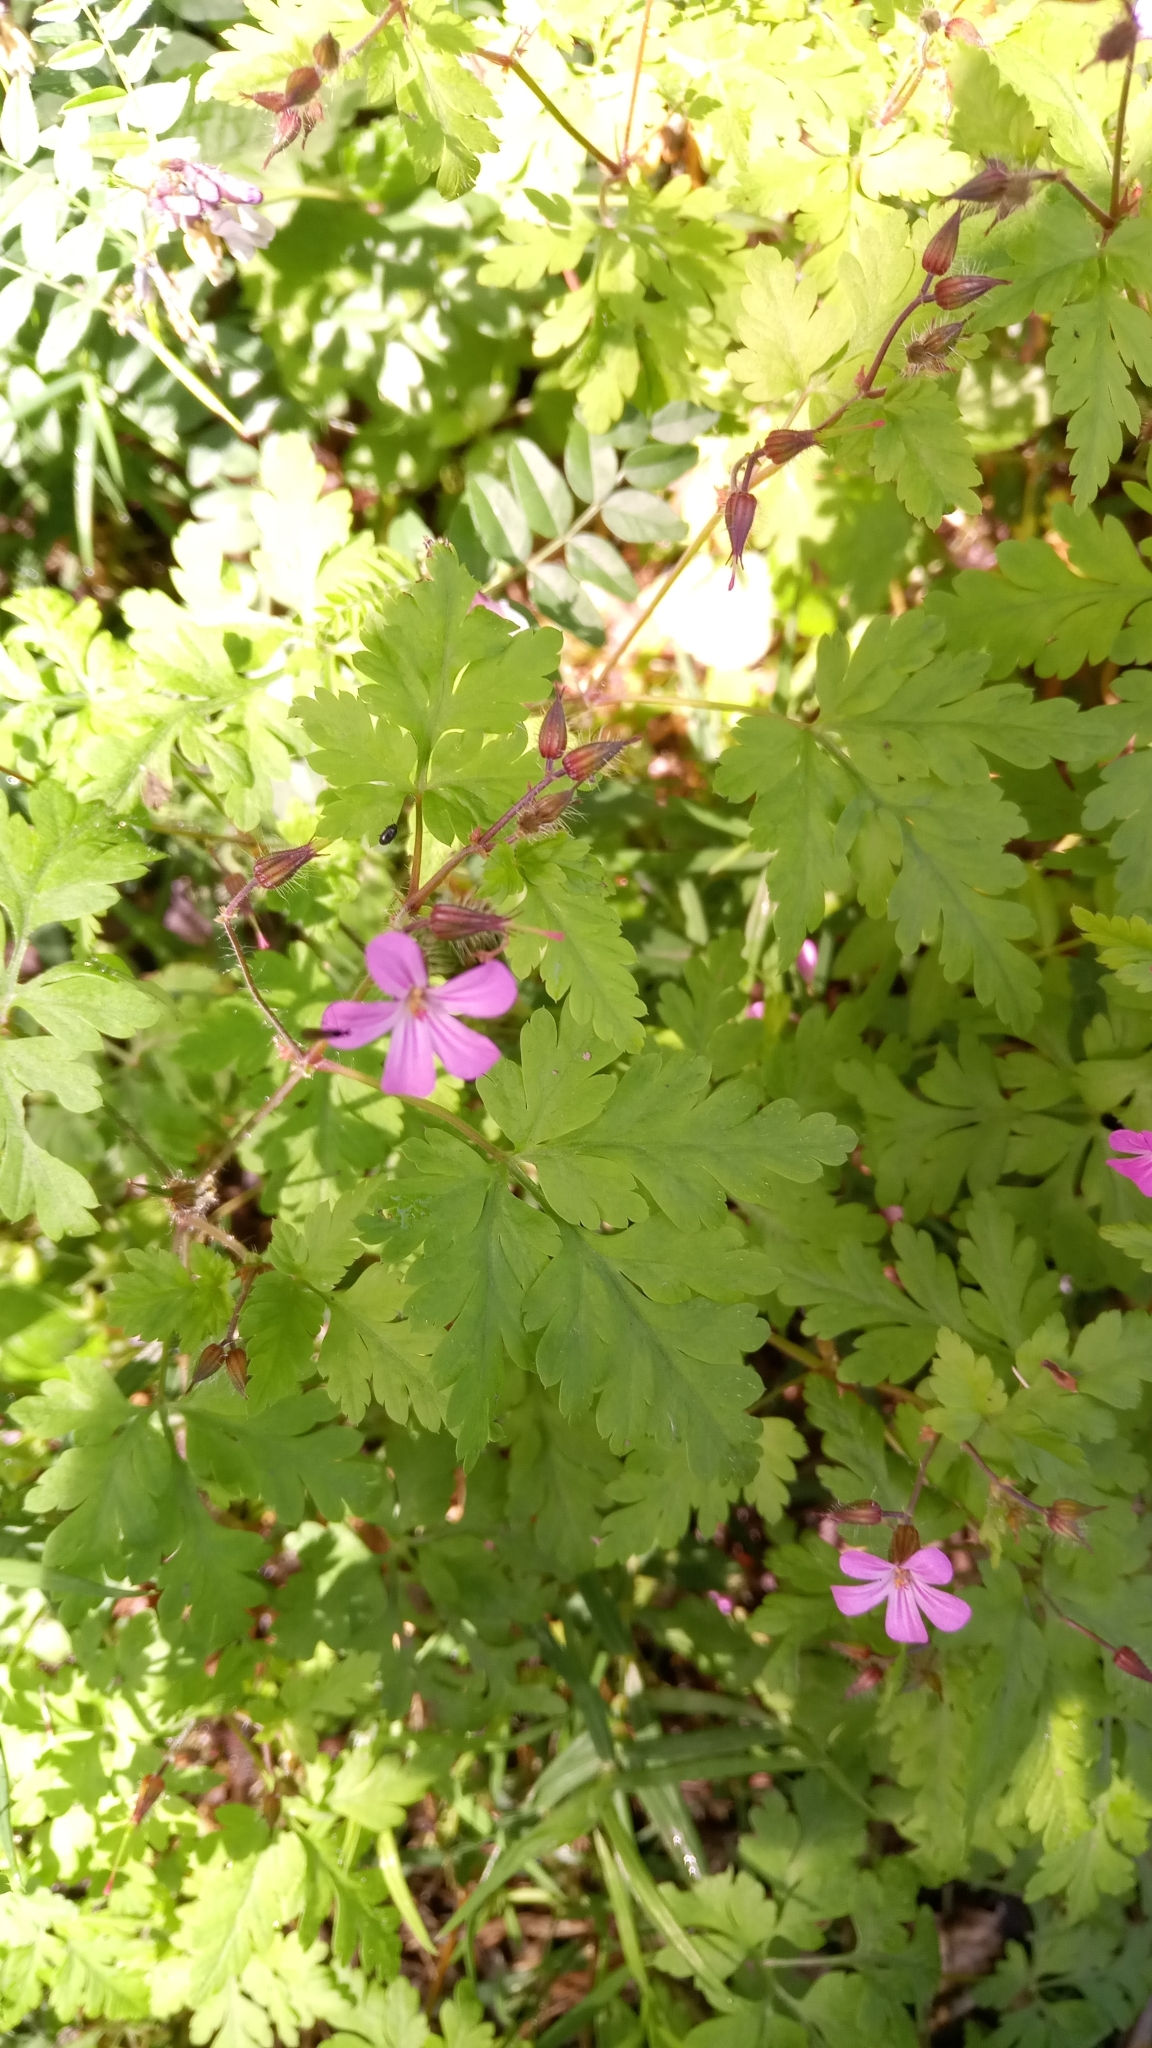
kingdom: Plantae
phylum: Tracheophyta
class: Magnoliopsida
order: Geraniales
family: Geraniaceae
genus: Geranium
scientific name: Geranium robertianum
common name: Herb-robert
